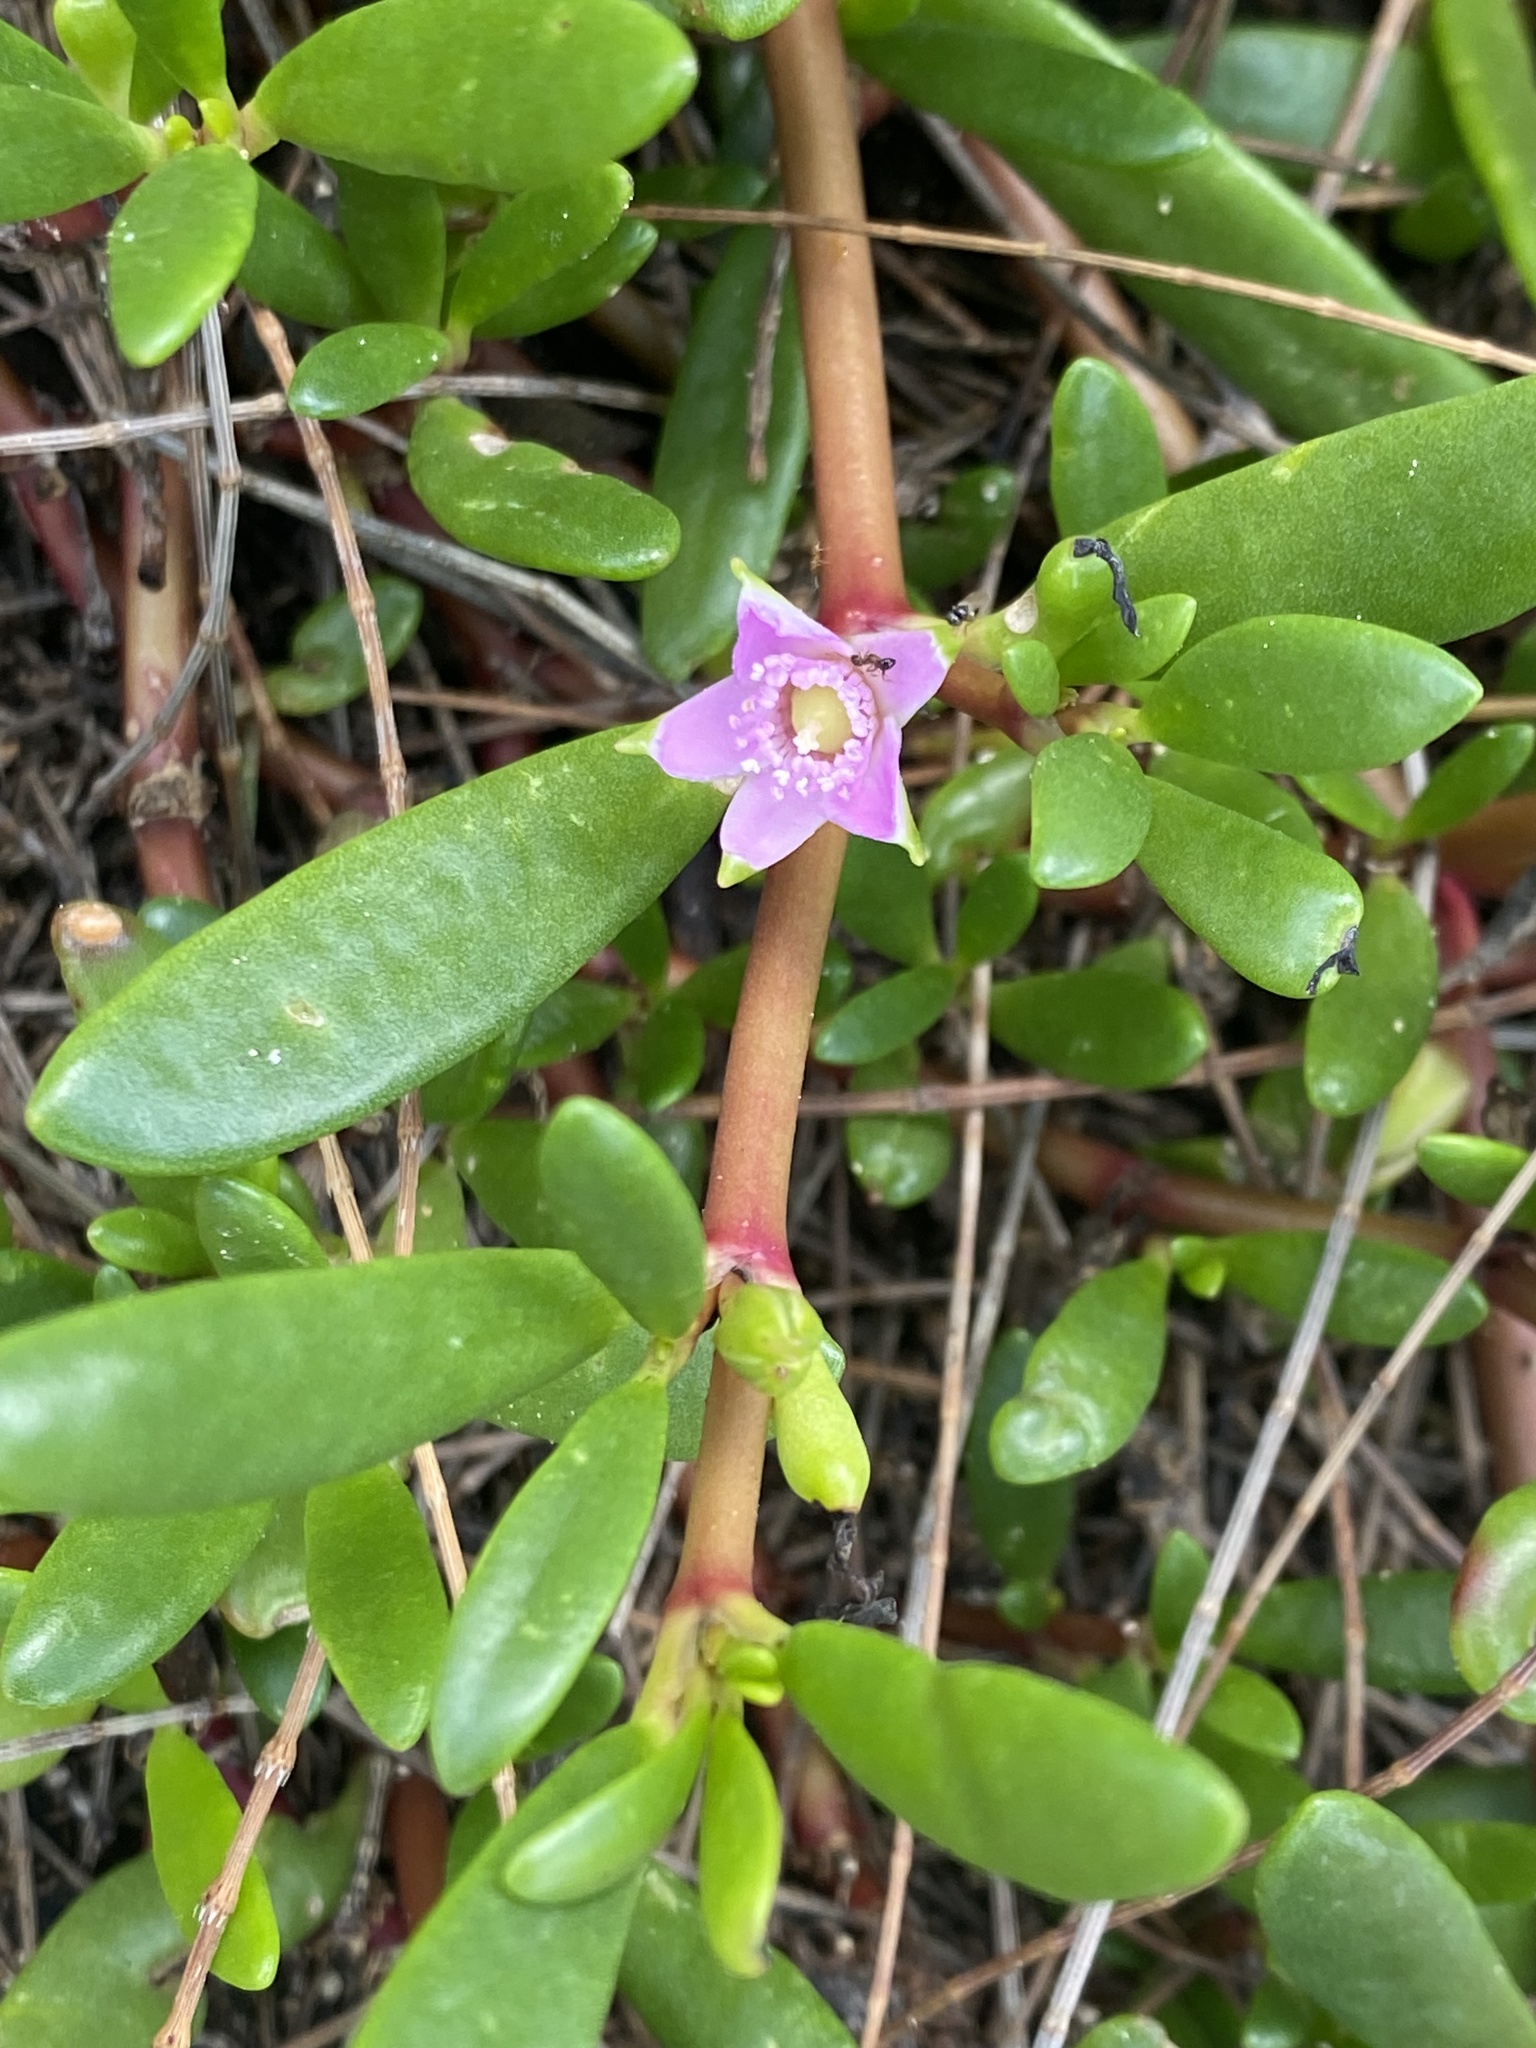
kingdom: Plantae
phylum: Tracheophyta
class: Magnoliopsida
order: Caryophyllales
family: Aizoaceae
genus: Sesuvium
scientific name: Sesuvium portulacastrum
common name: Sea-purslane
